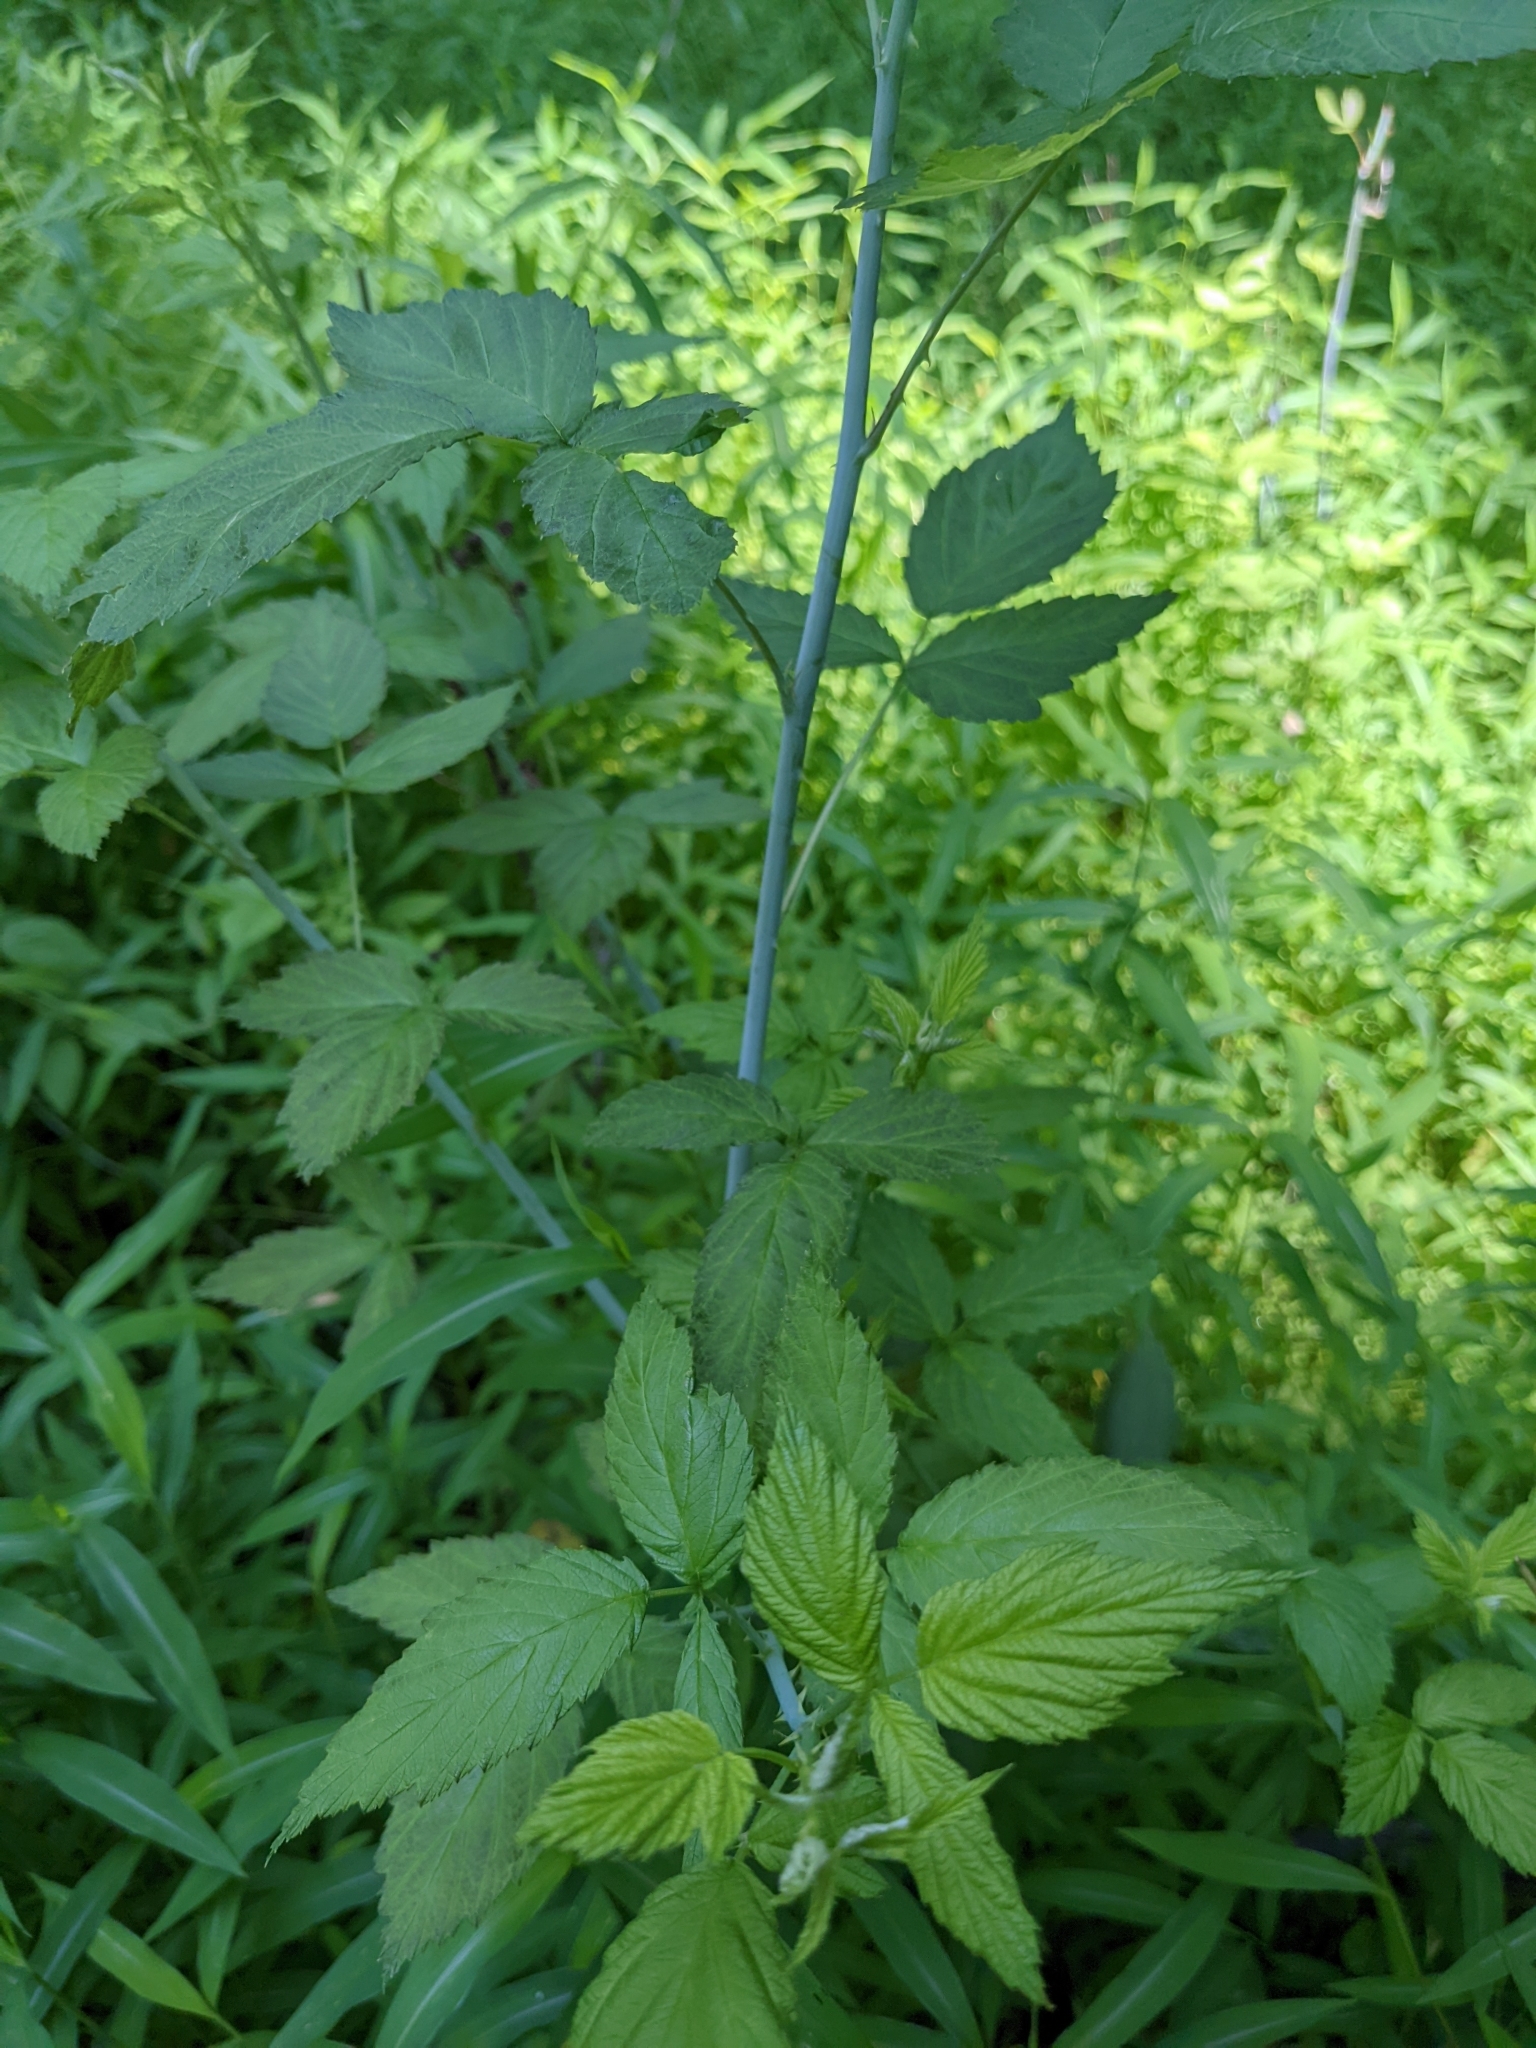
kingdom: Plantae
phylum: Tracheophyta
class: Magnoliopsida
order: Rosales
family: Rosaceae
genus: Rubus
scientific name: Rubus occidentalis
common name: Black raspberry
